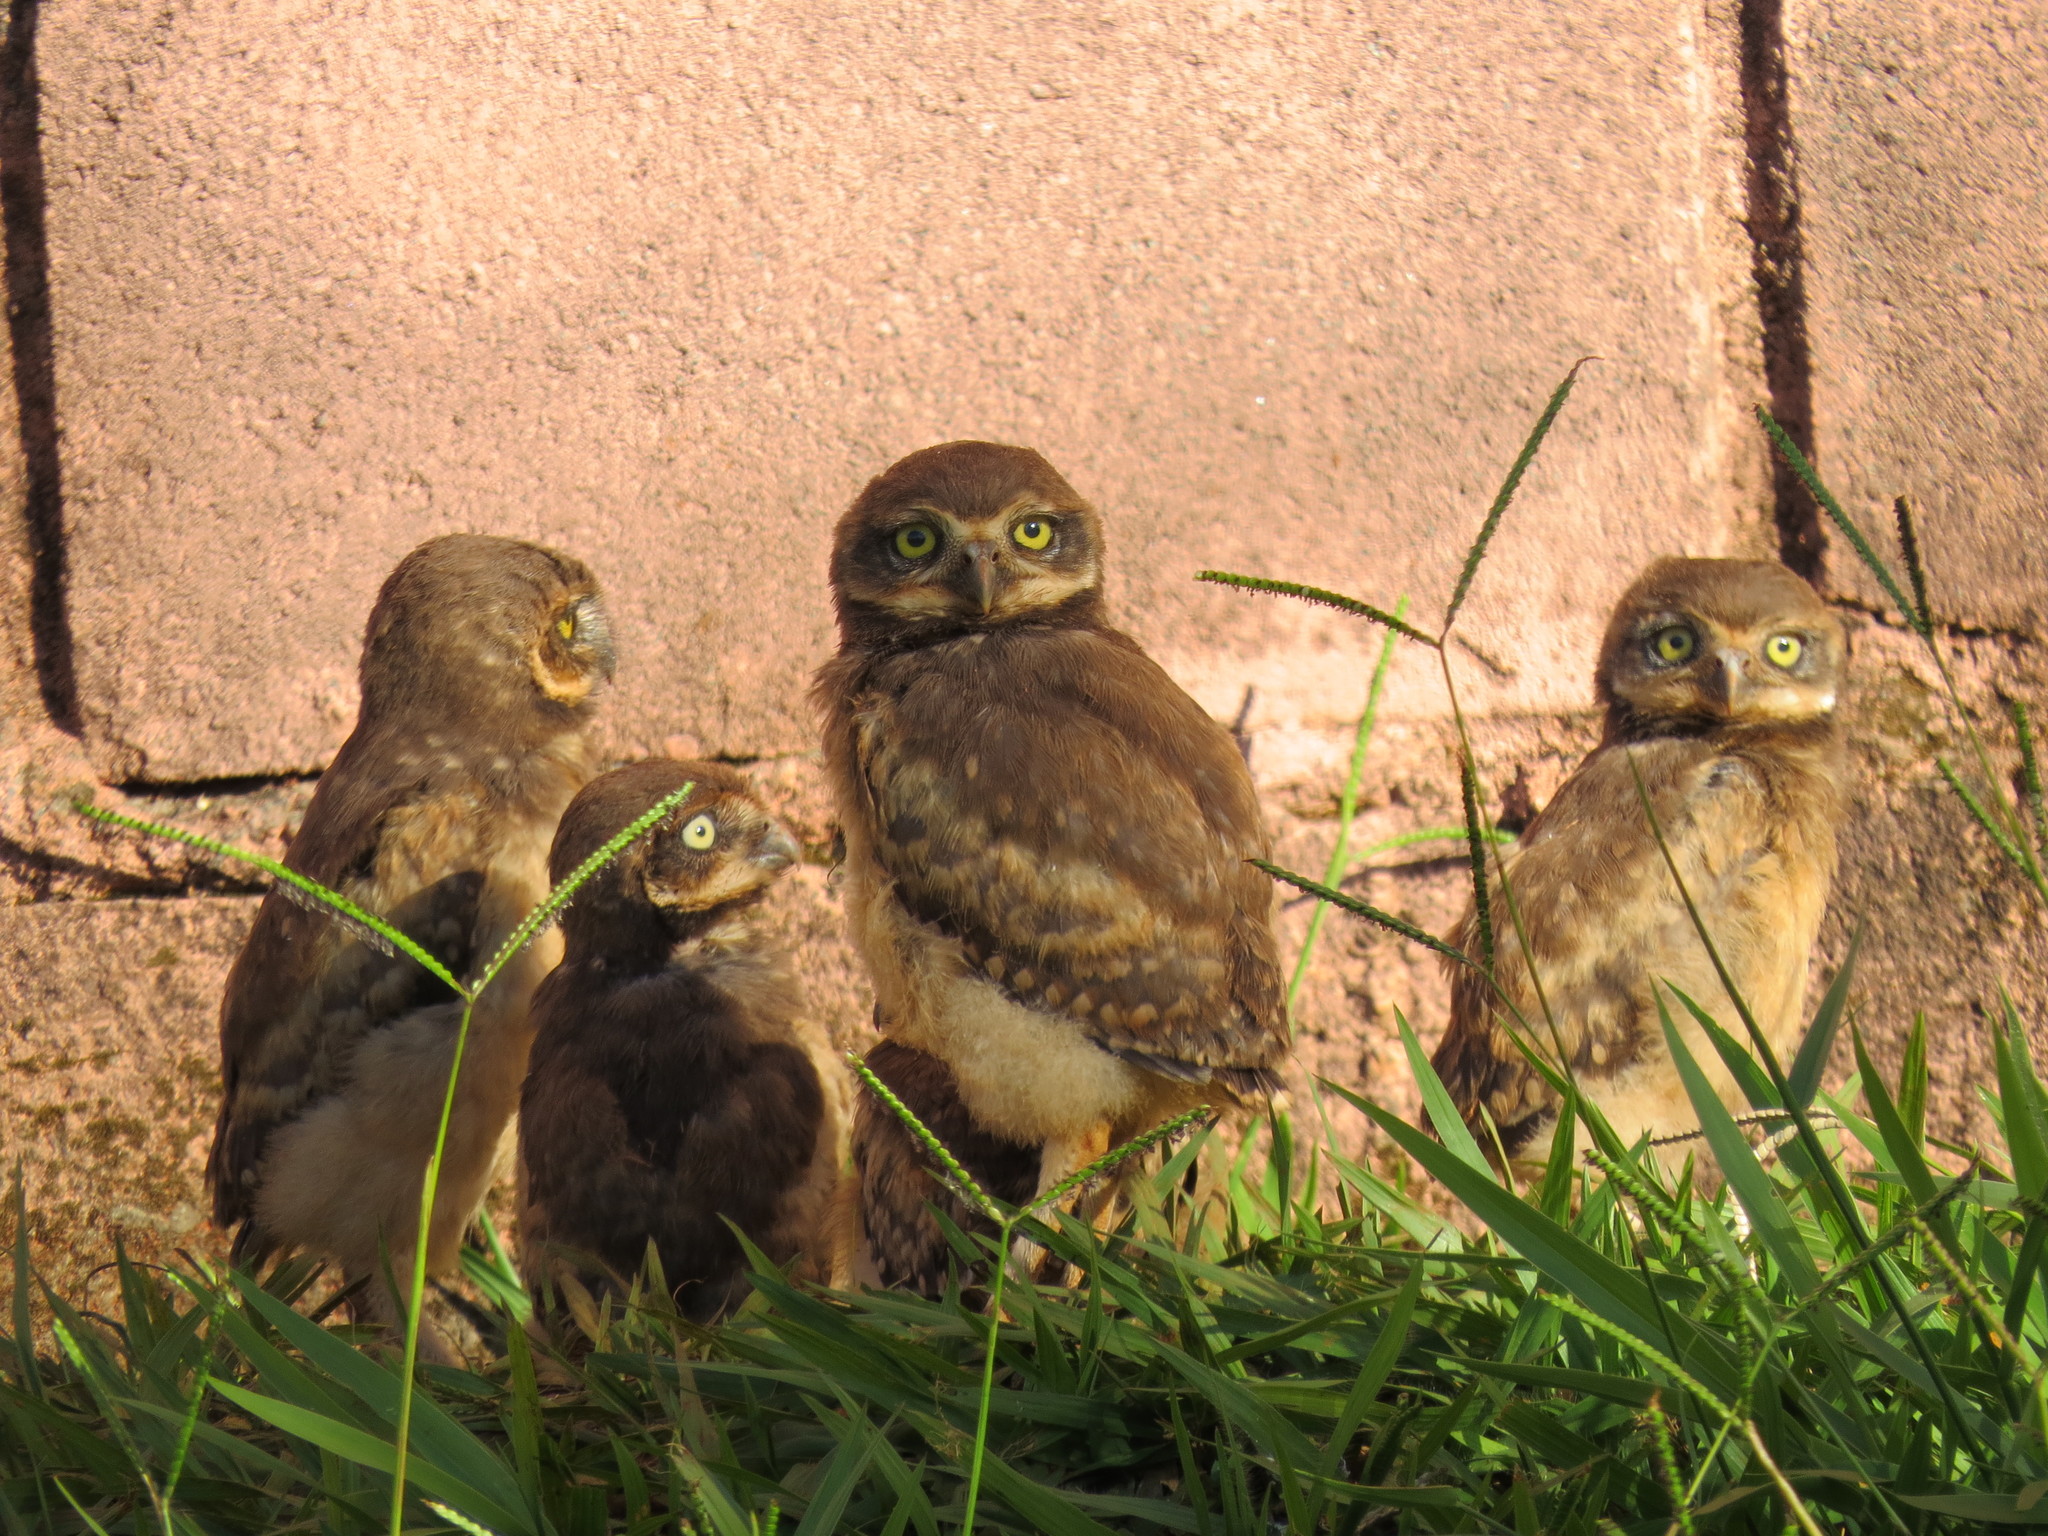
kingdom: Animalia
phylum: Chordata
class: Aves
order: Strigiformes
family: Strigidae
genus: Athene
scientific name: Athene cunicularia
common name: Burrowing owl
